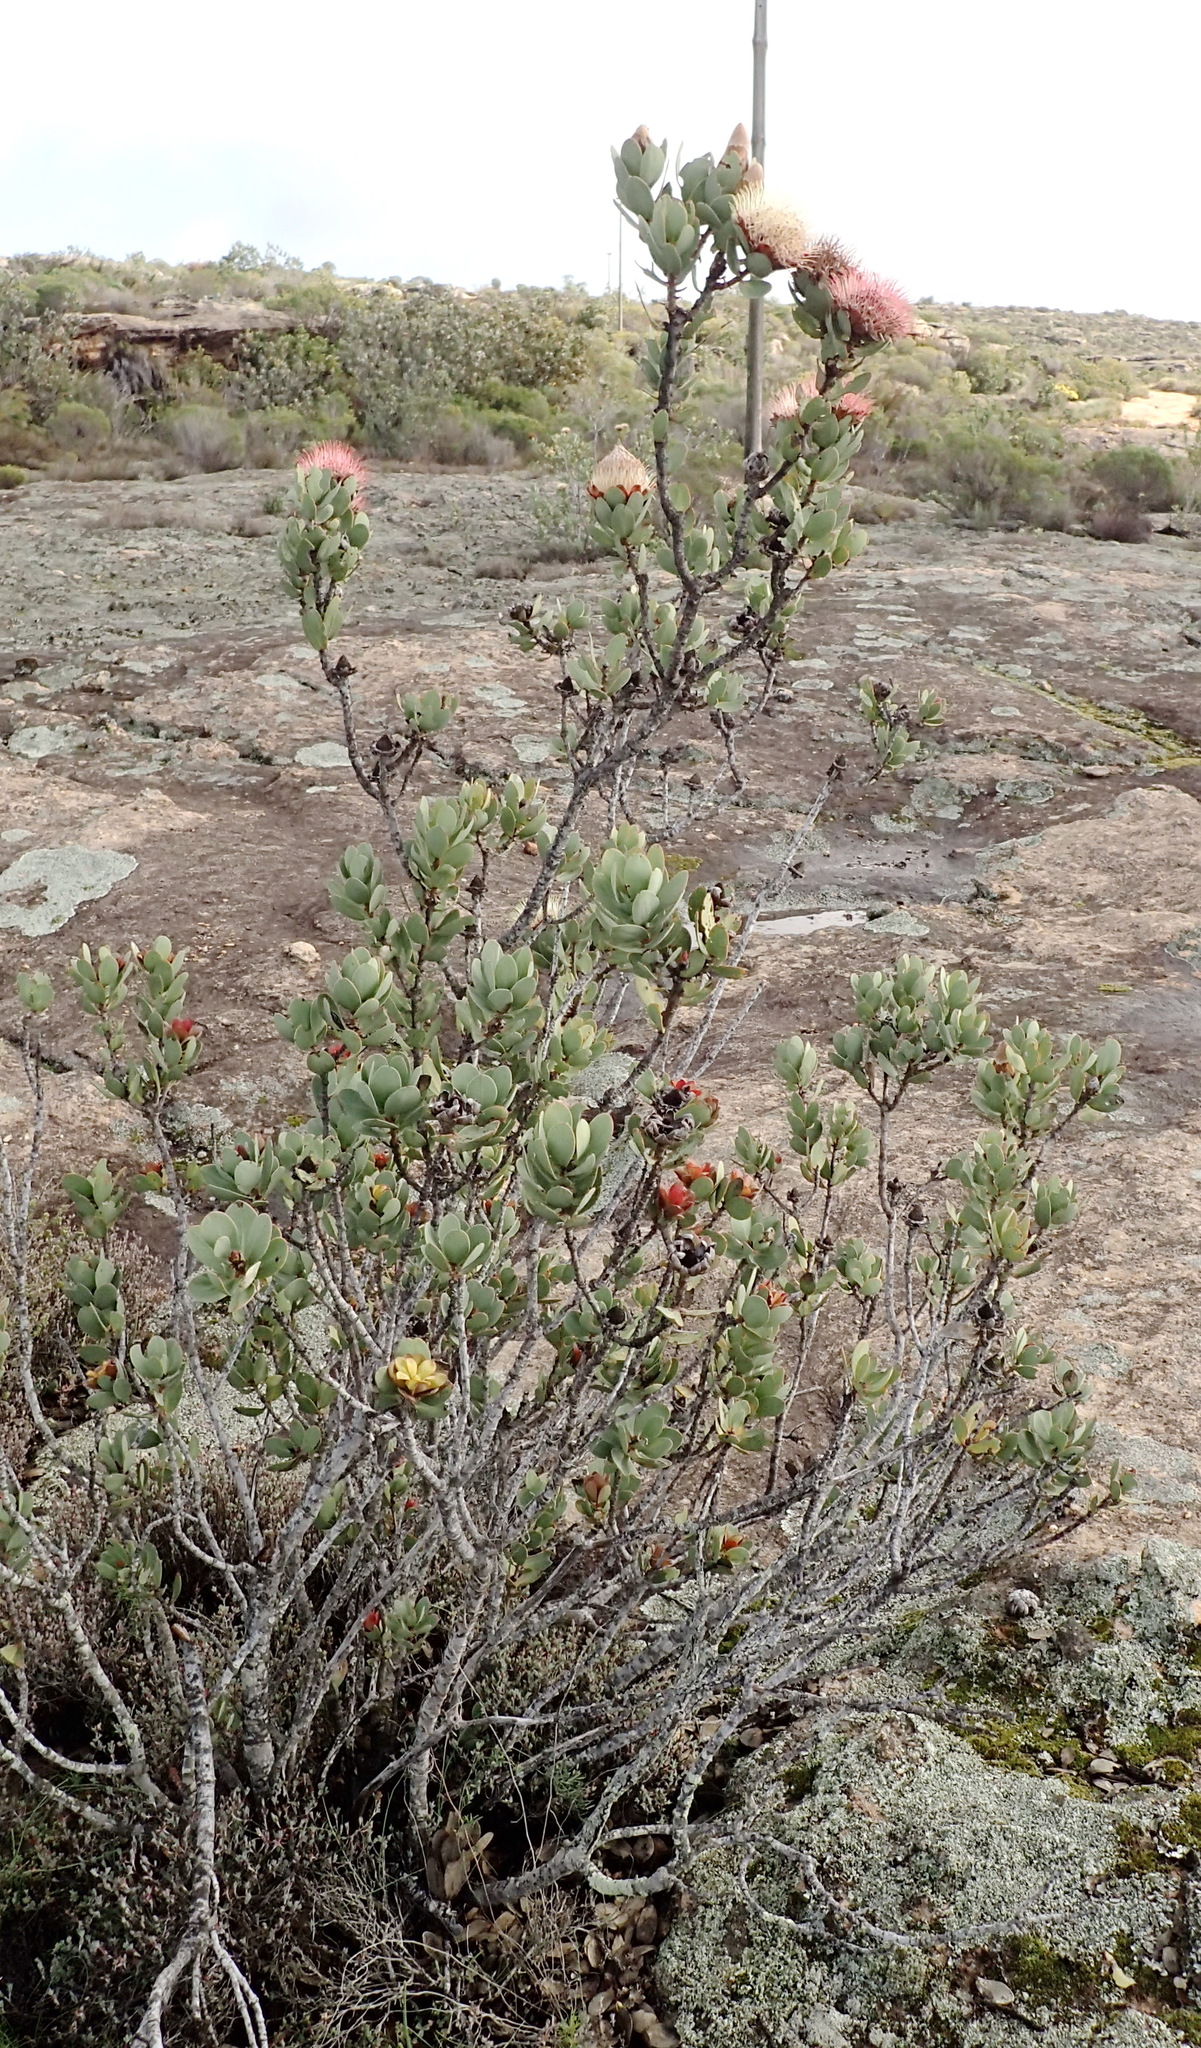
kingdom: Plantae
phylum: Tracheophyta
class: Magnoliopsida
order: Proteales
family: Proteaceae
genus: Protea
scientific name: Protea glabra
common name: Chestnut sugarbush
